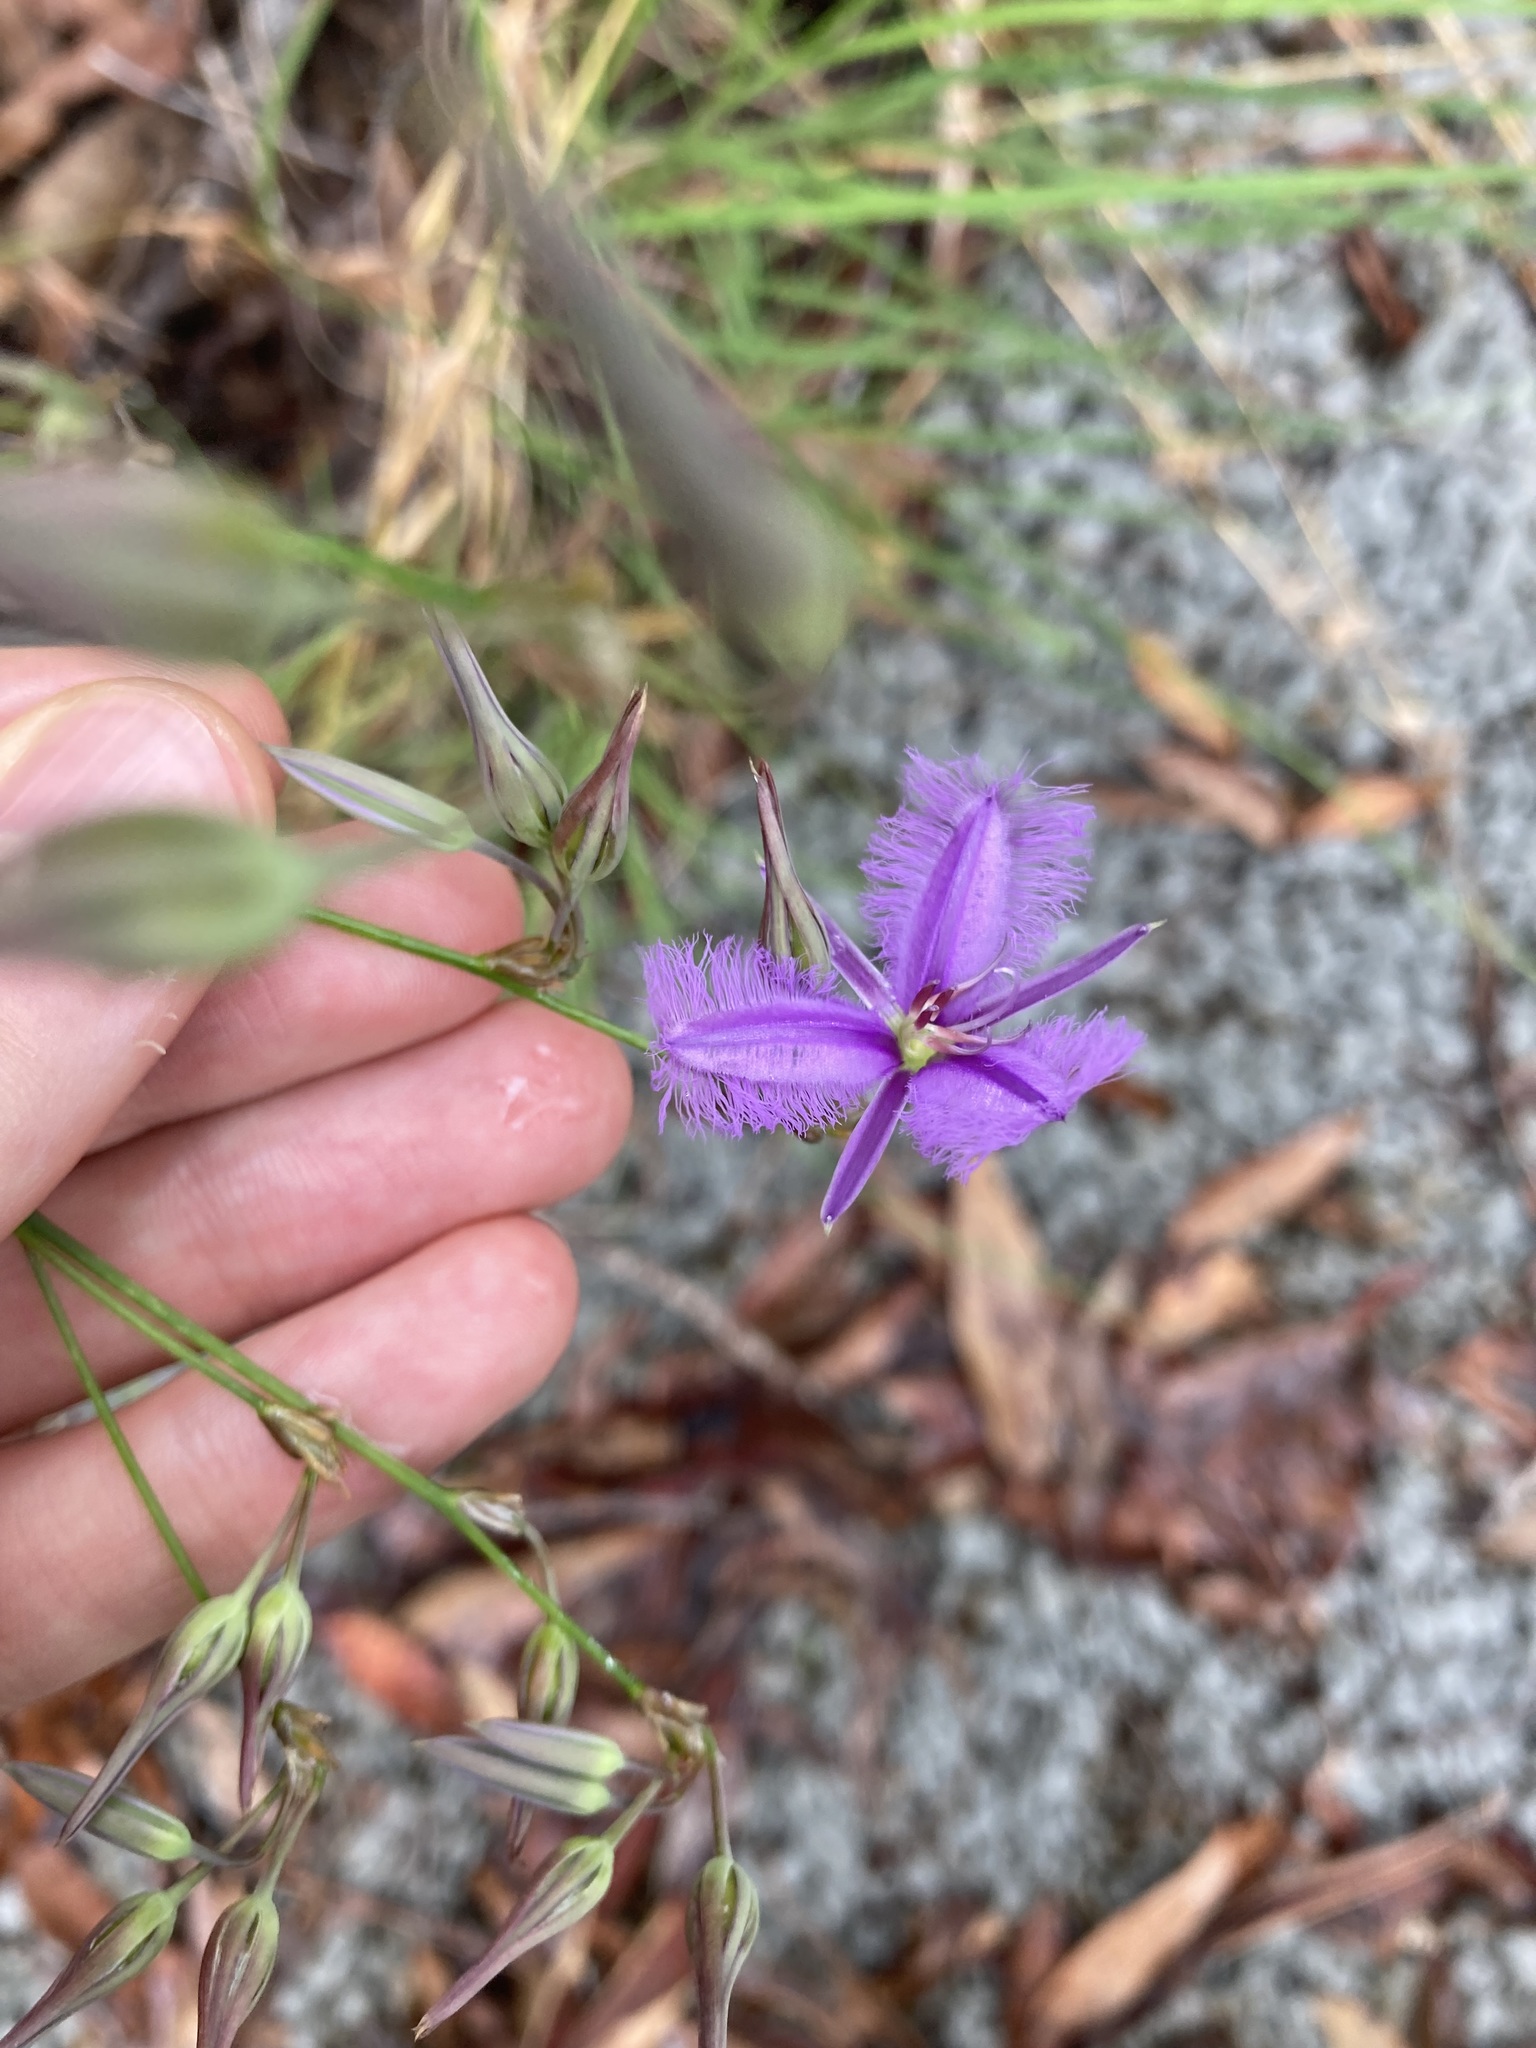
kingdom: Plantae
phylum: Tracheophyta
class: Liliopsida
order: Asparagales
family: Asparagaceae
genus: Thysanotus
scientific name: Thysanotus tuberosus
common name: Common fringed-lily
